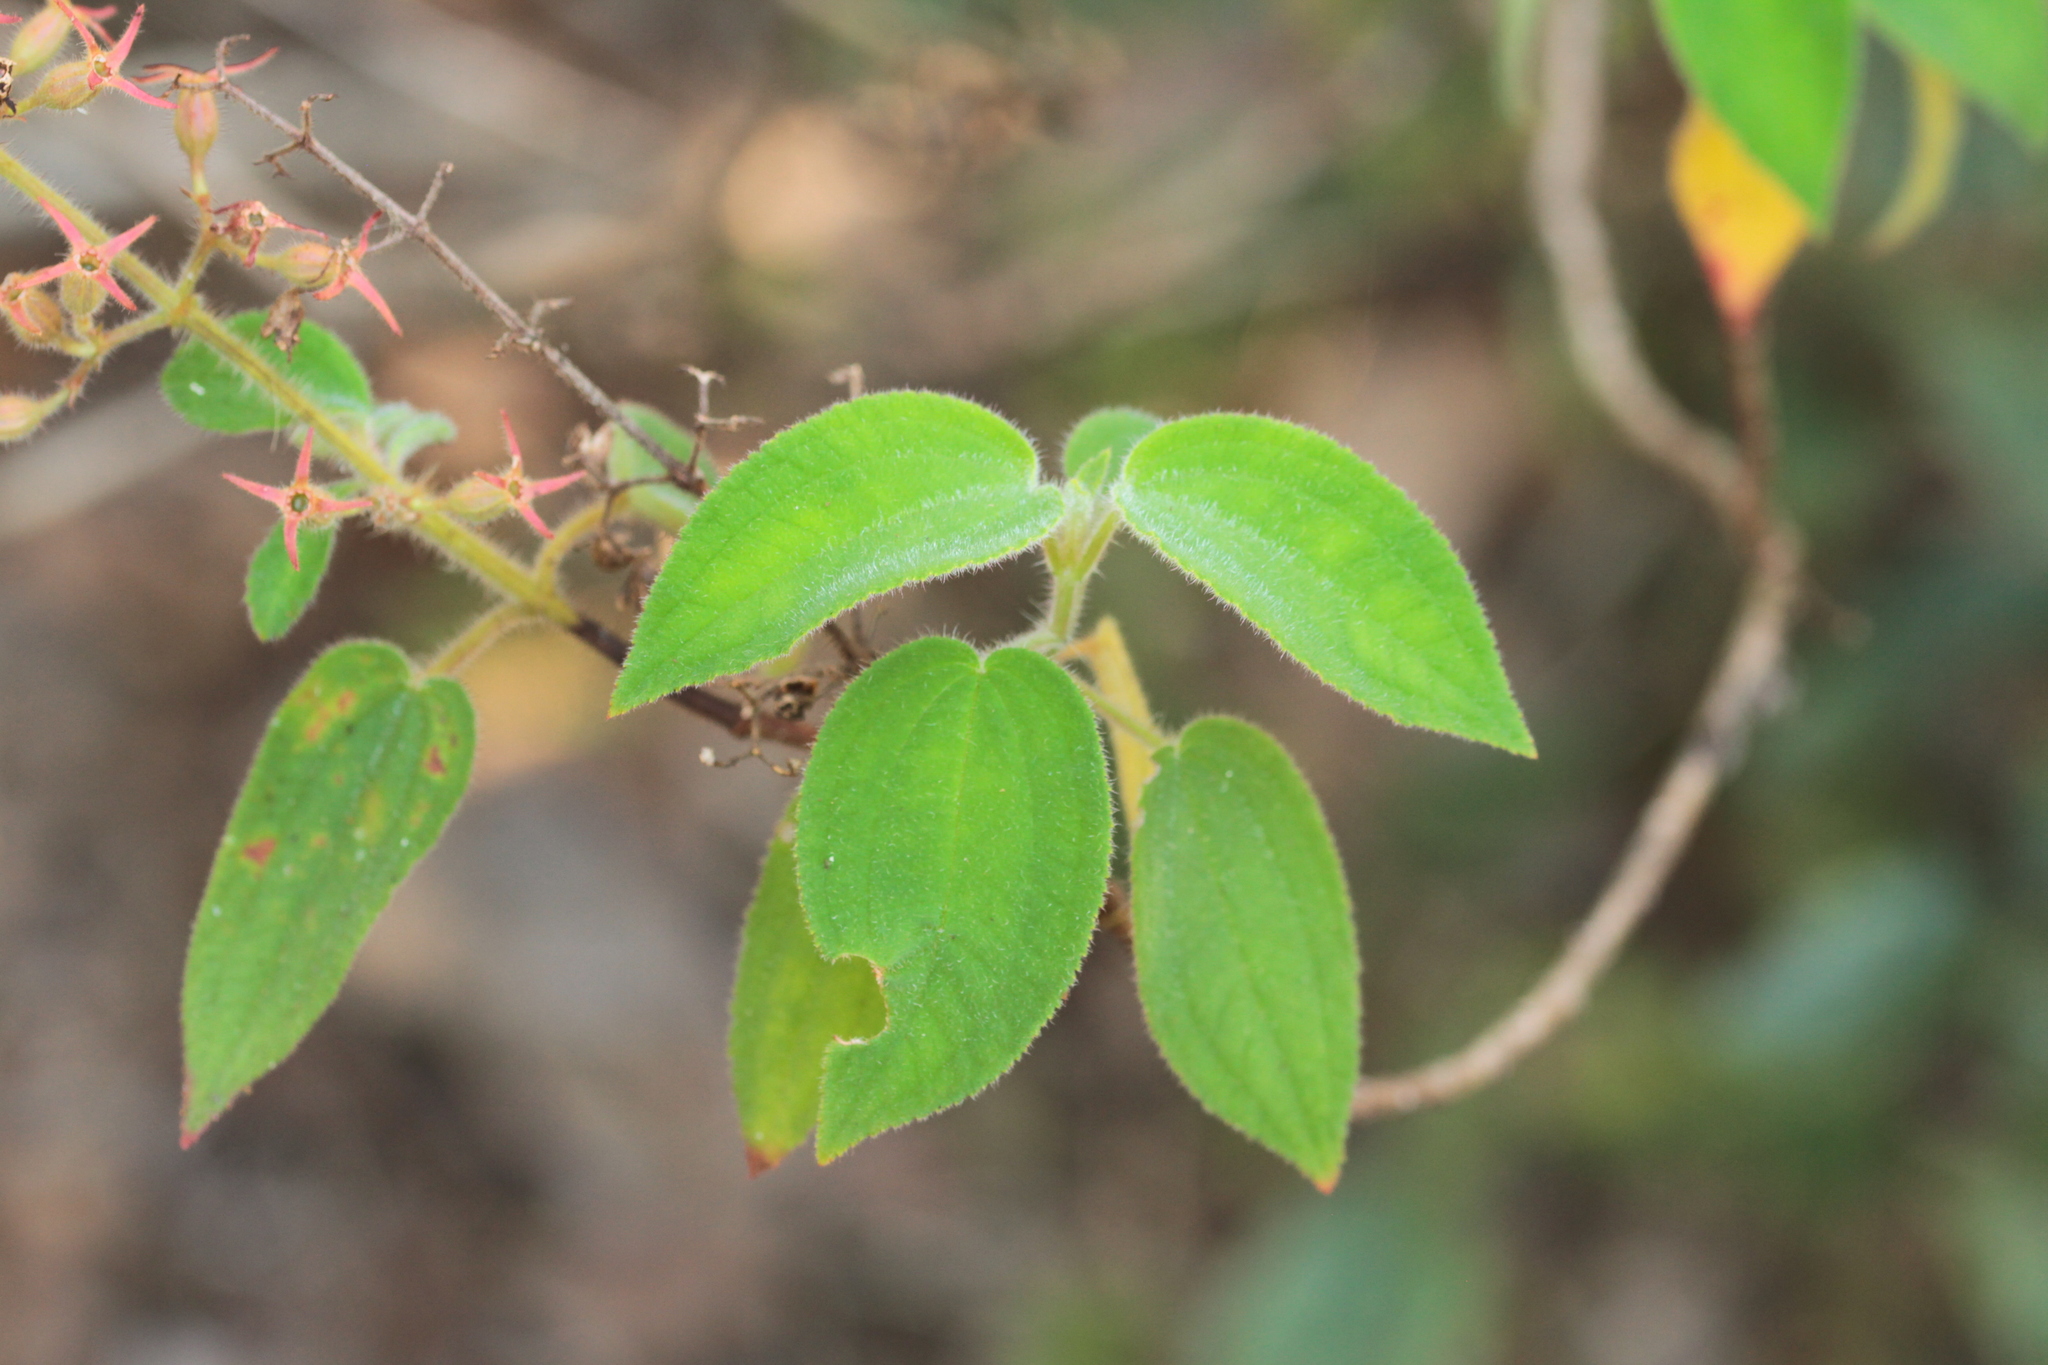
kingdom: Plantae
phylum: Tracheophyta
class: Magnoliopsida
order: Myrtales
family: Melastomataceae
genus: Ernestia
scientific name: Ernestia granvillei
